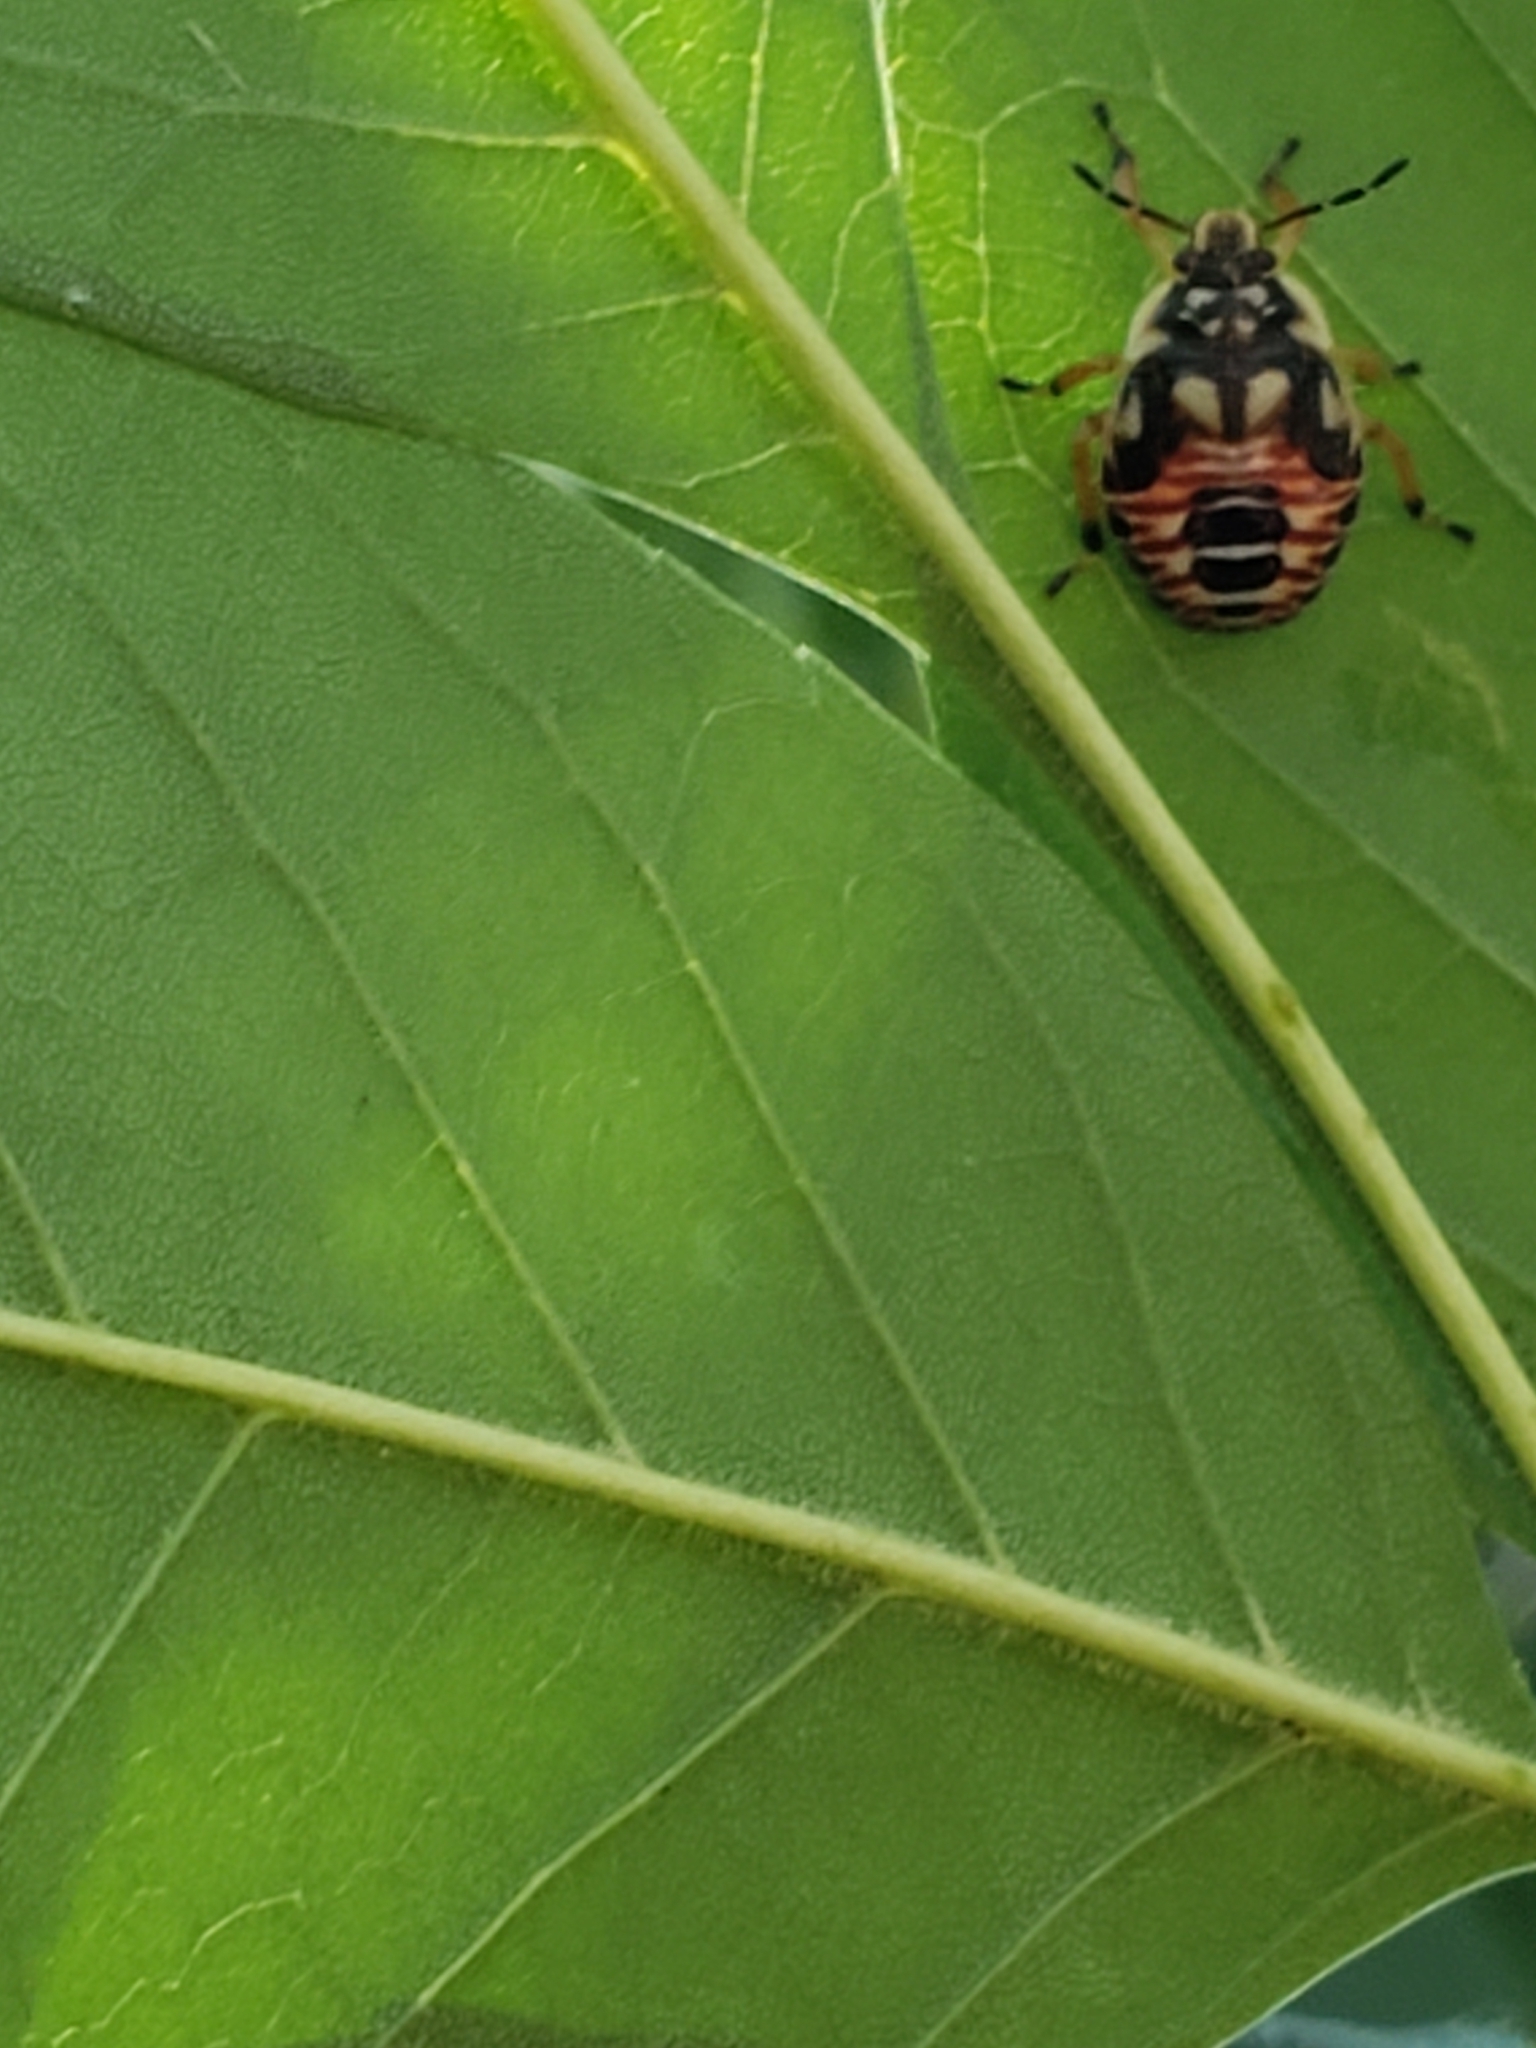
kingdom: Animalia
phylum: Arthropoda
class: Insecta
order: Hemiptera
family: Pentatomidae
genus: Podisus
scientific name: Podisus placidus
